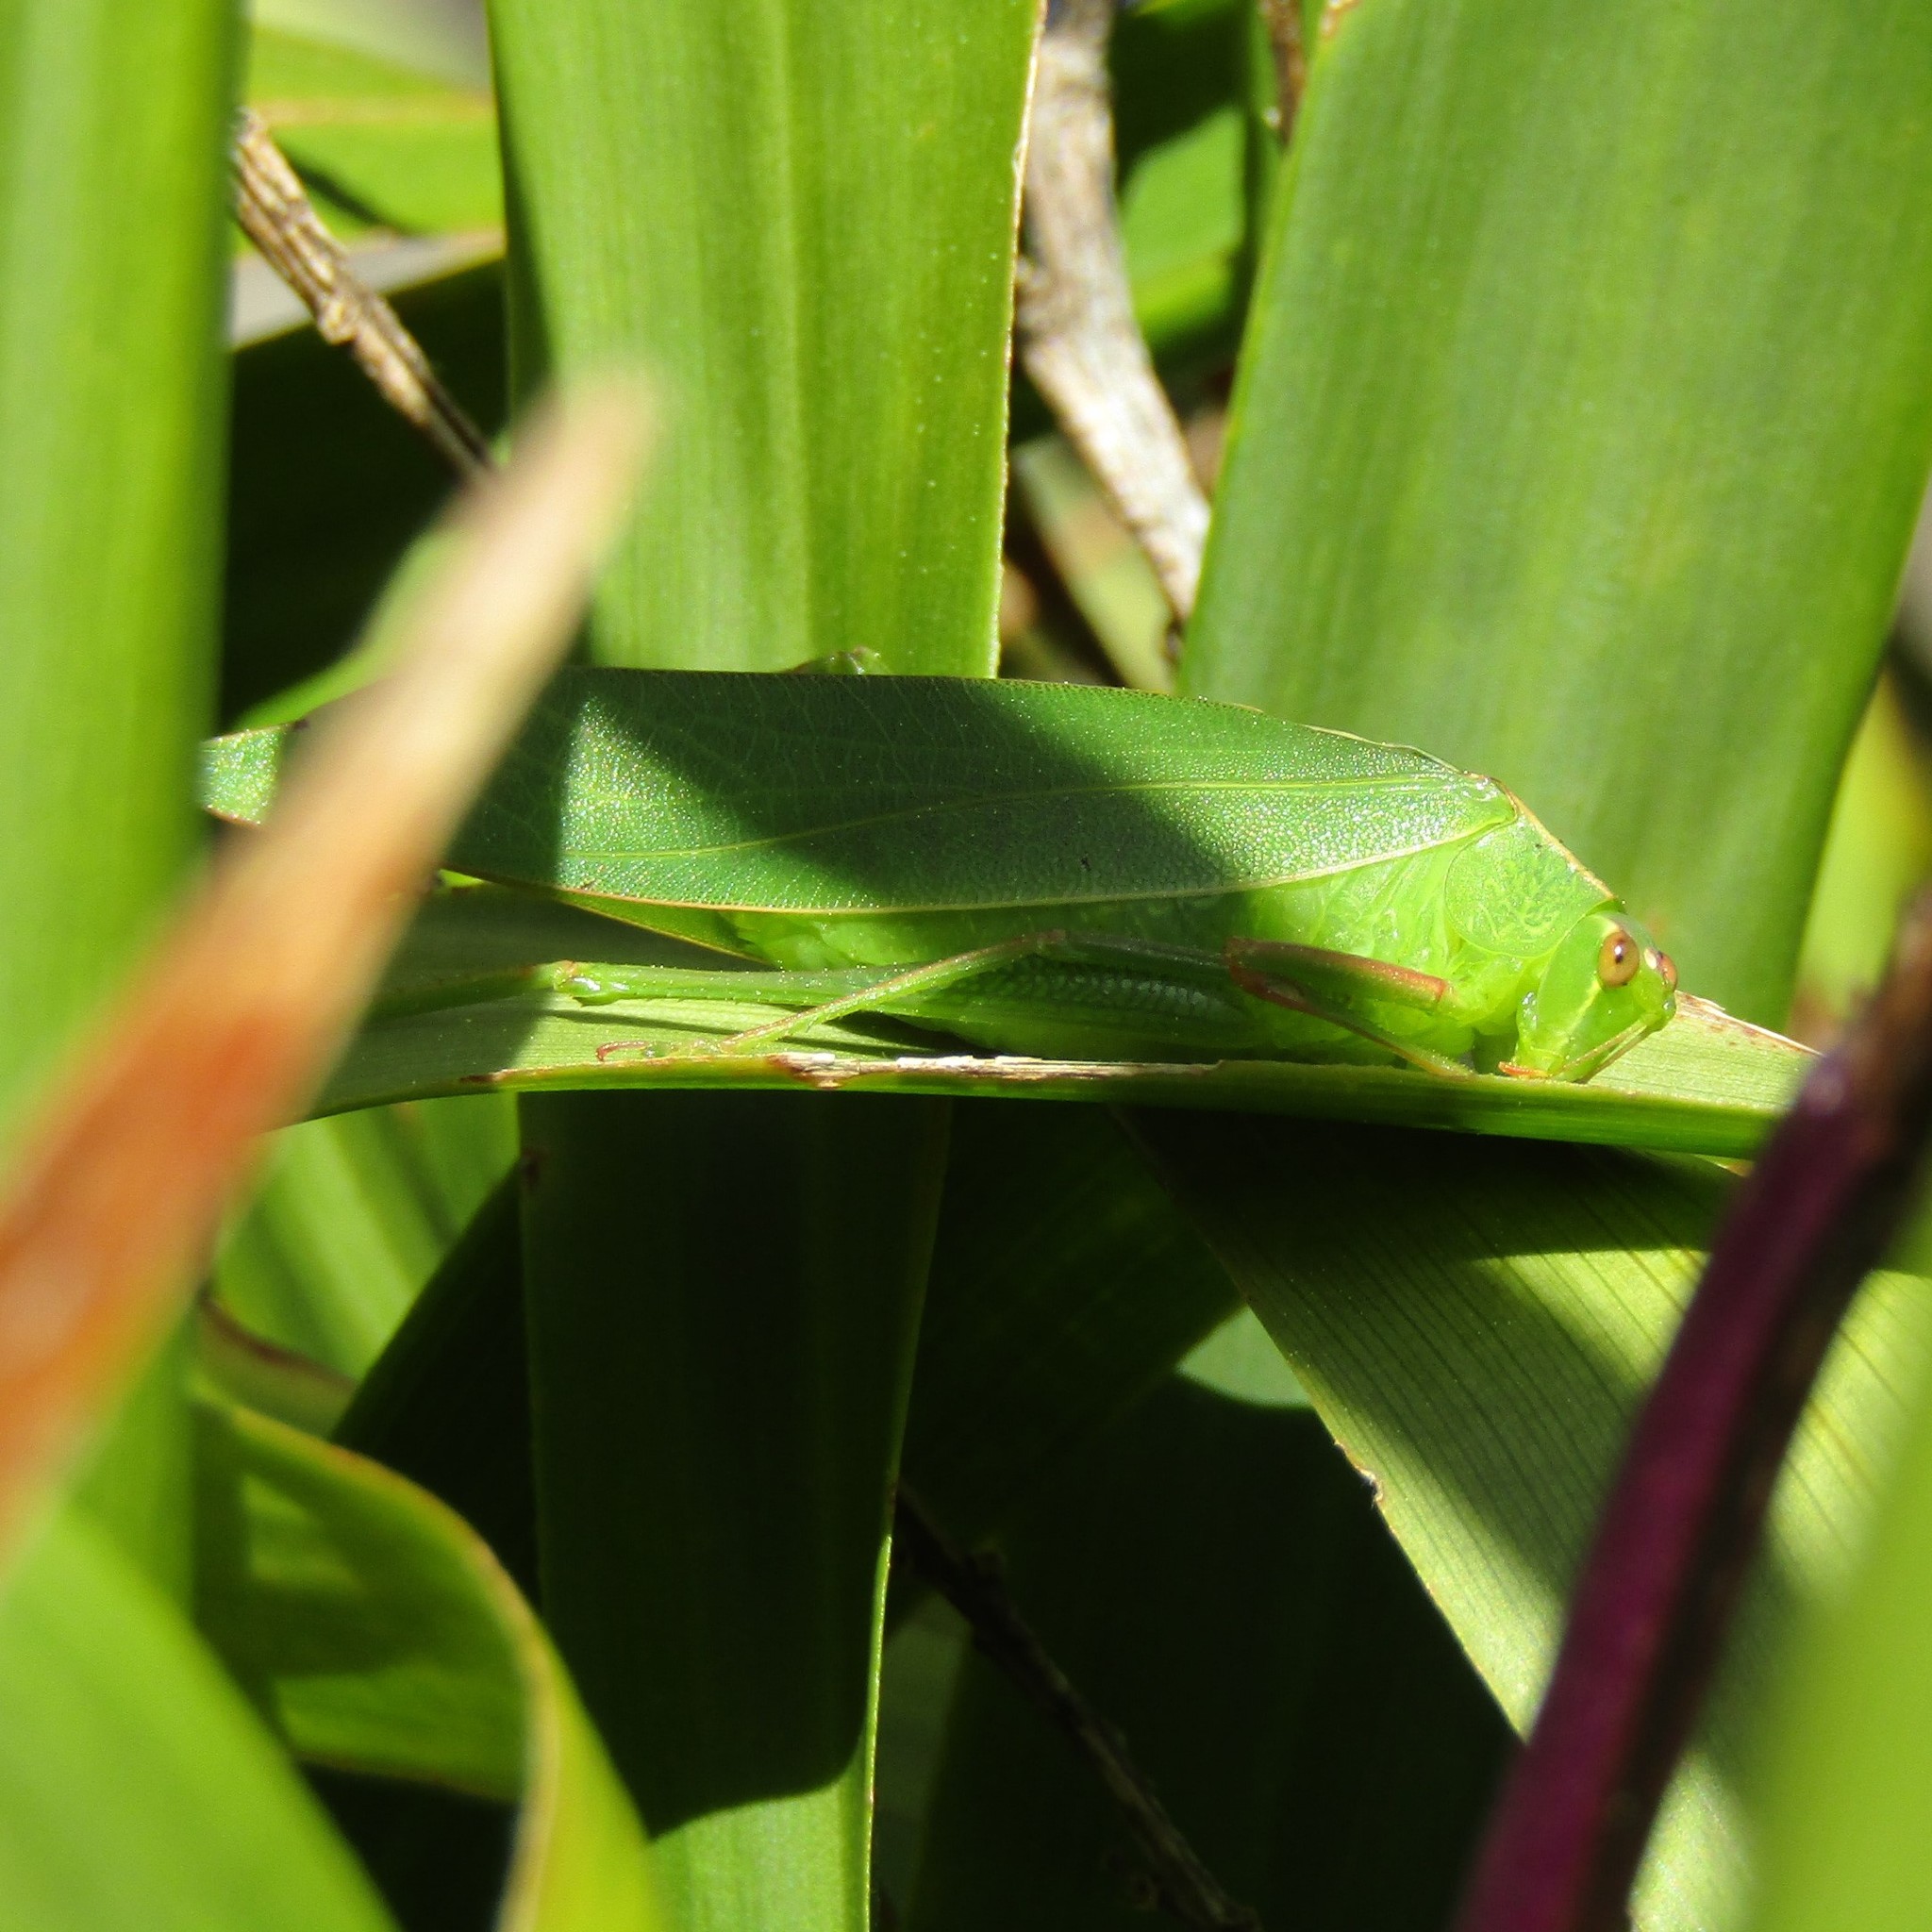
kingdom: Animalia
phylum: Arthropoda
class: Insecta
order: Orthoptera
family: Tettigoniidae
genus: Caedicia
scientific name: Caedicia simplex
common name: Common garden katydid
